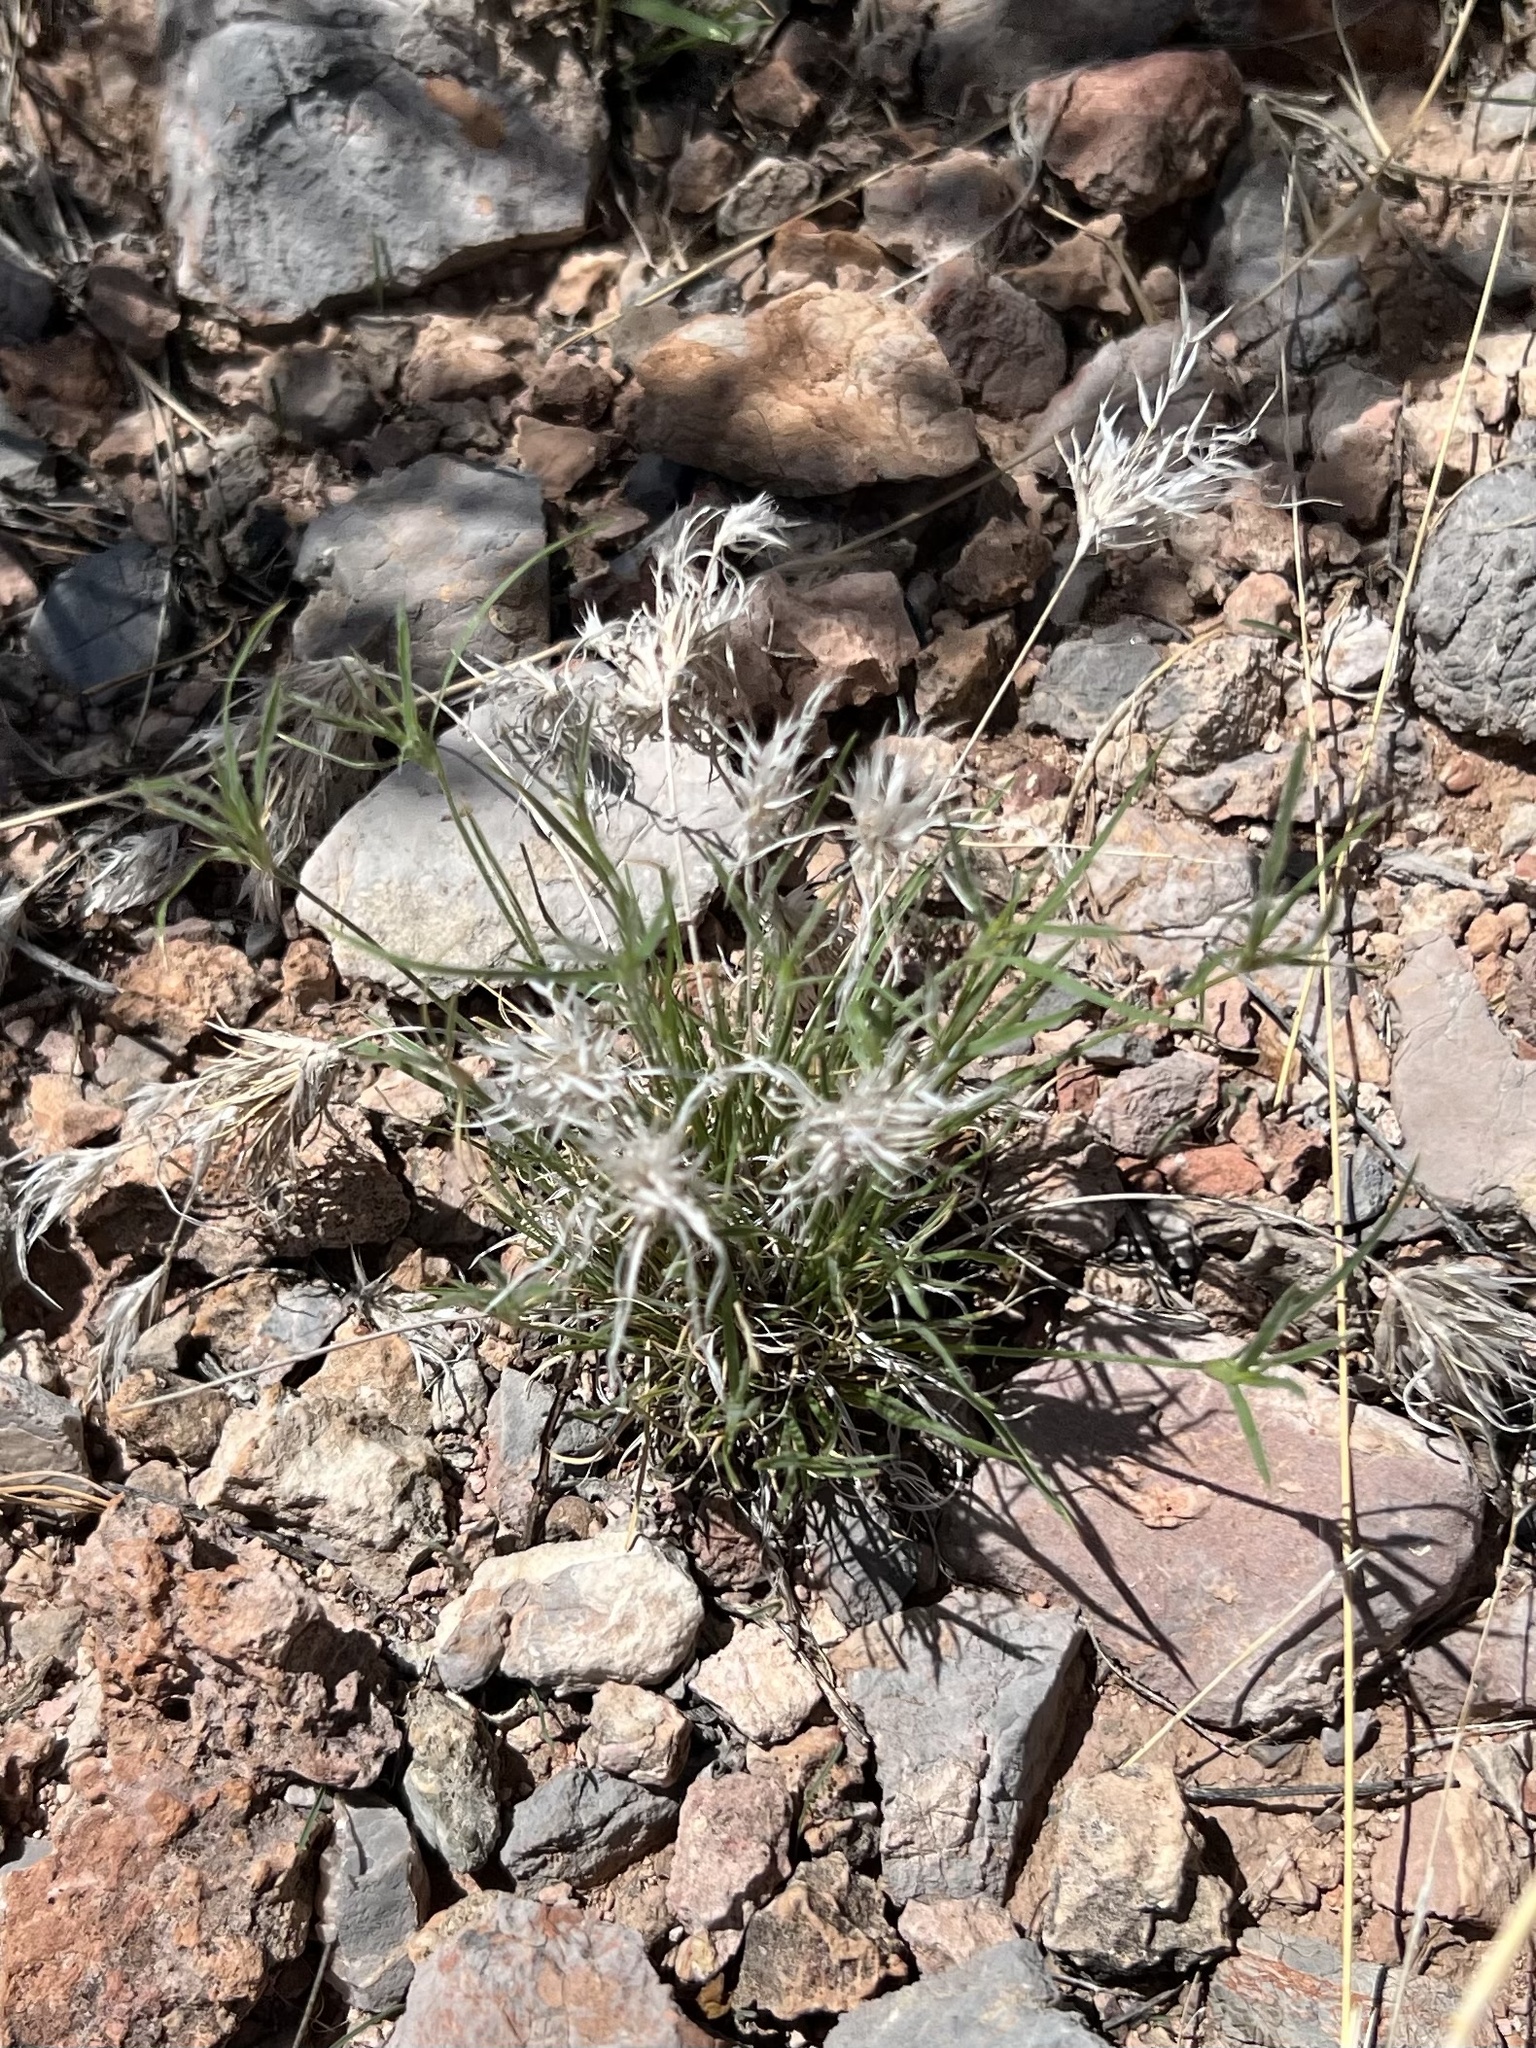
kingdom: Plantae
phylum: Tracheophyta
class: Liliopsida
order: Poales
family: Poaceae
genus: Dasyochloa
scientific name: Dasyochloa pulchella
